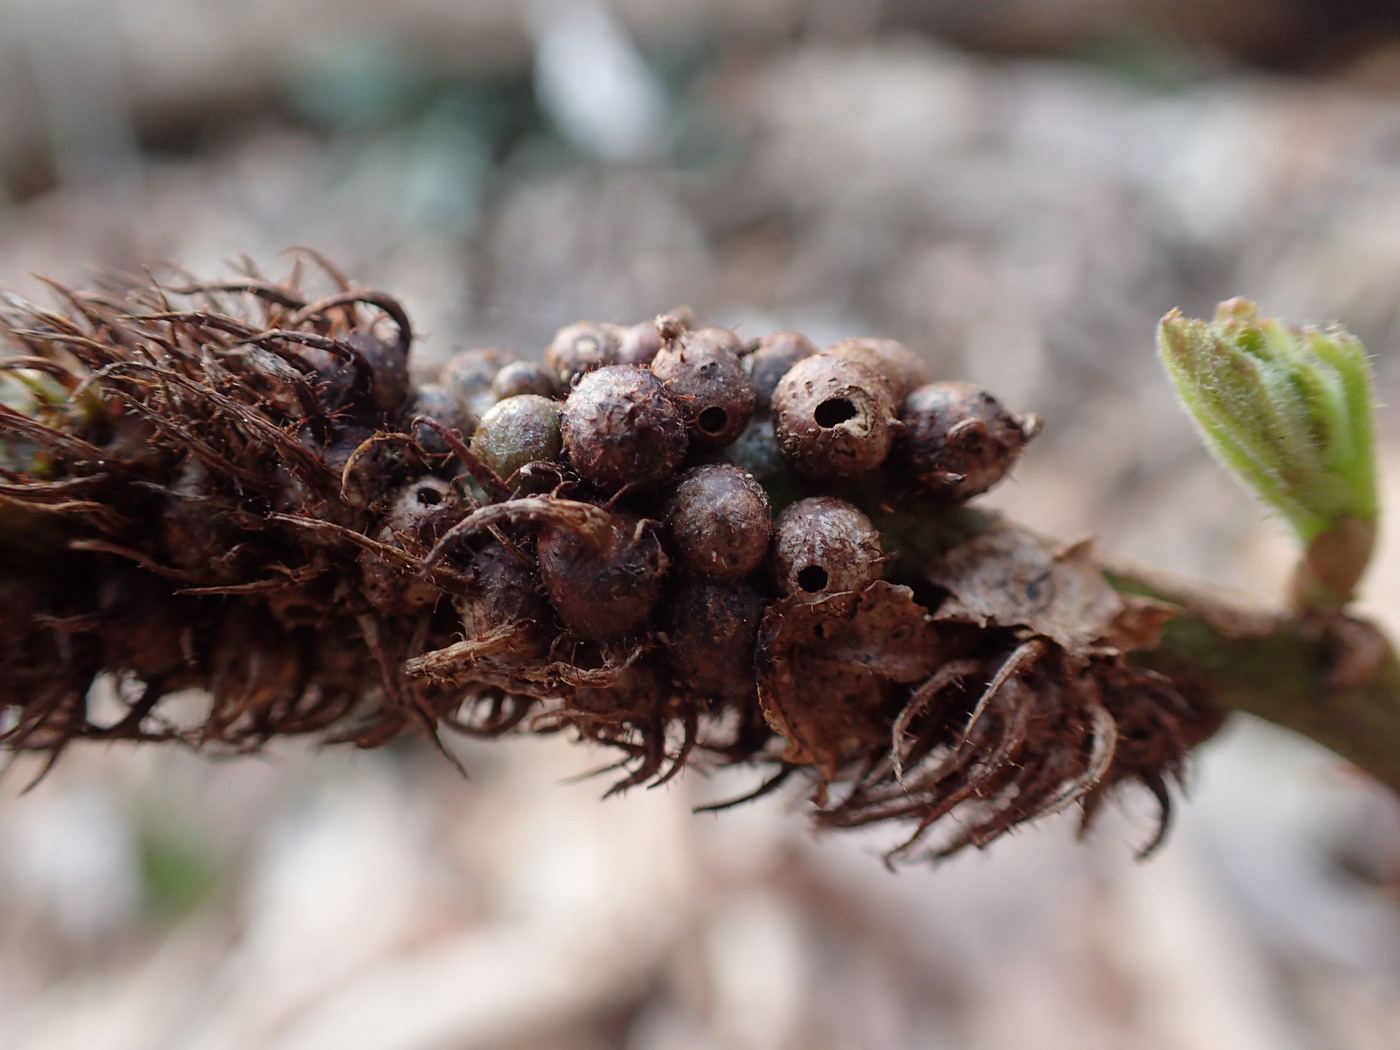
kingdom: Animalia
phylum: Arthropoda
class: Insecta
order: Hymenoptera
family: Cynipidae
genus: Diastrophus
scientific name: Diastrophus
